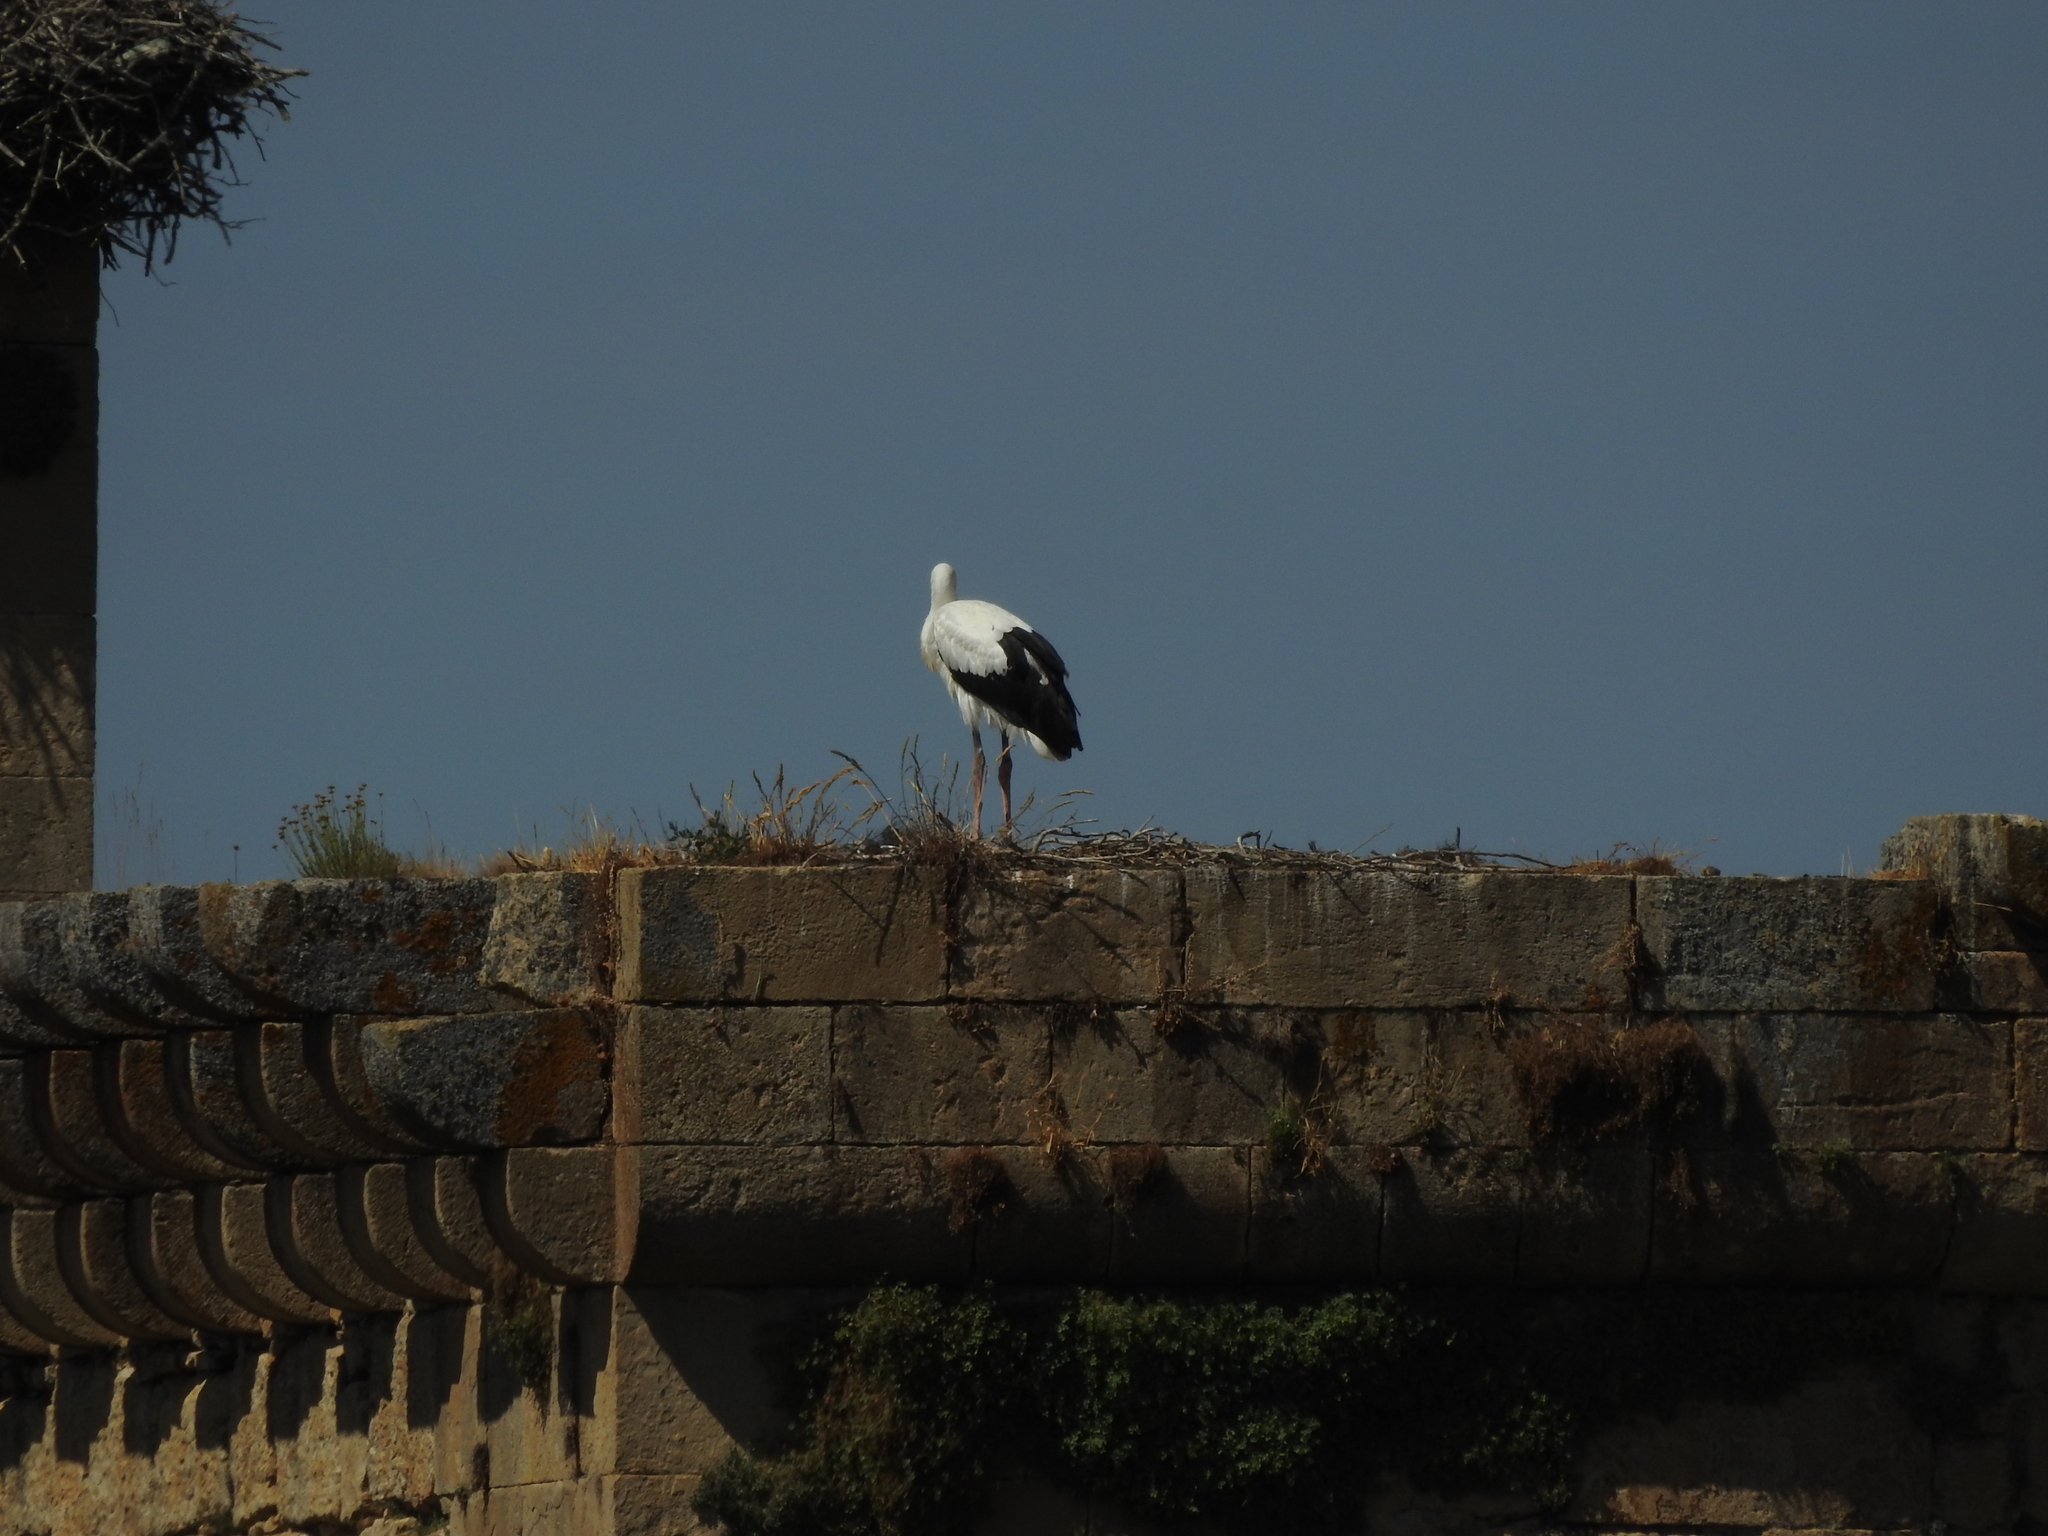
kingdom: Animalia
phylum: Chordata
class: Aves
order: Ciconiiformes
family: Ciconiidae
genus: Ciconia
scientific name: Ciconia ciconia
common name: White stork
